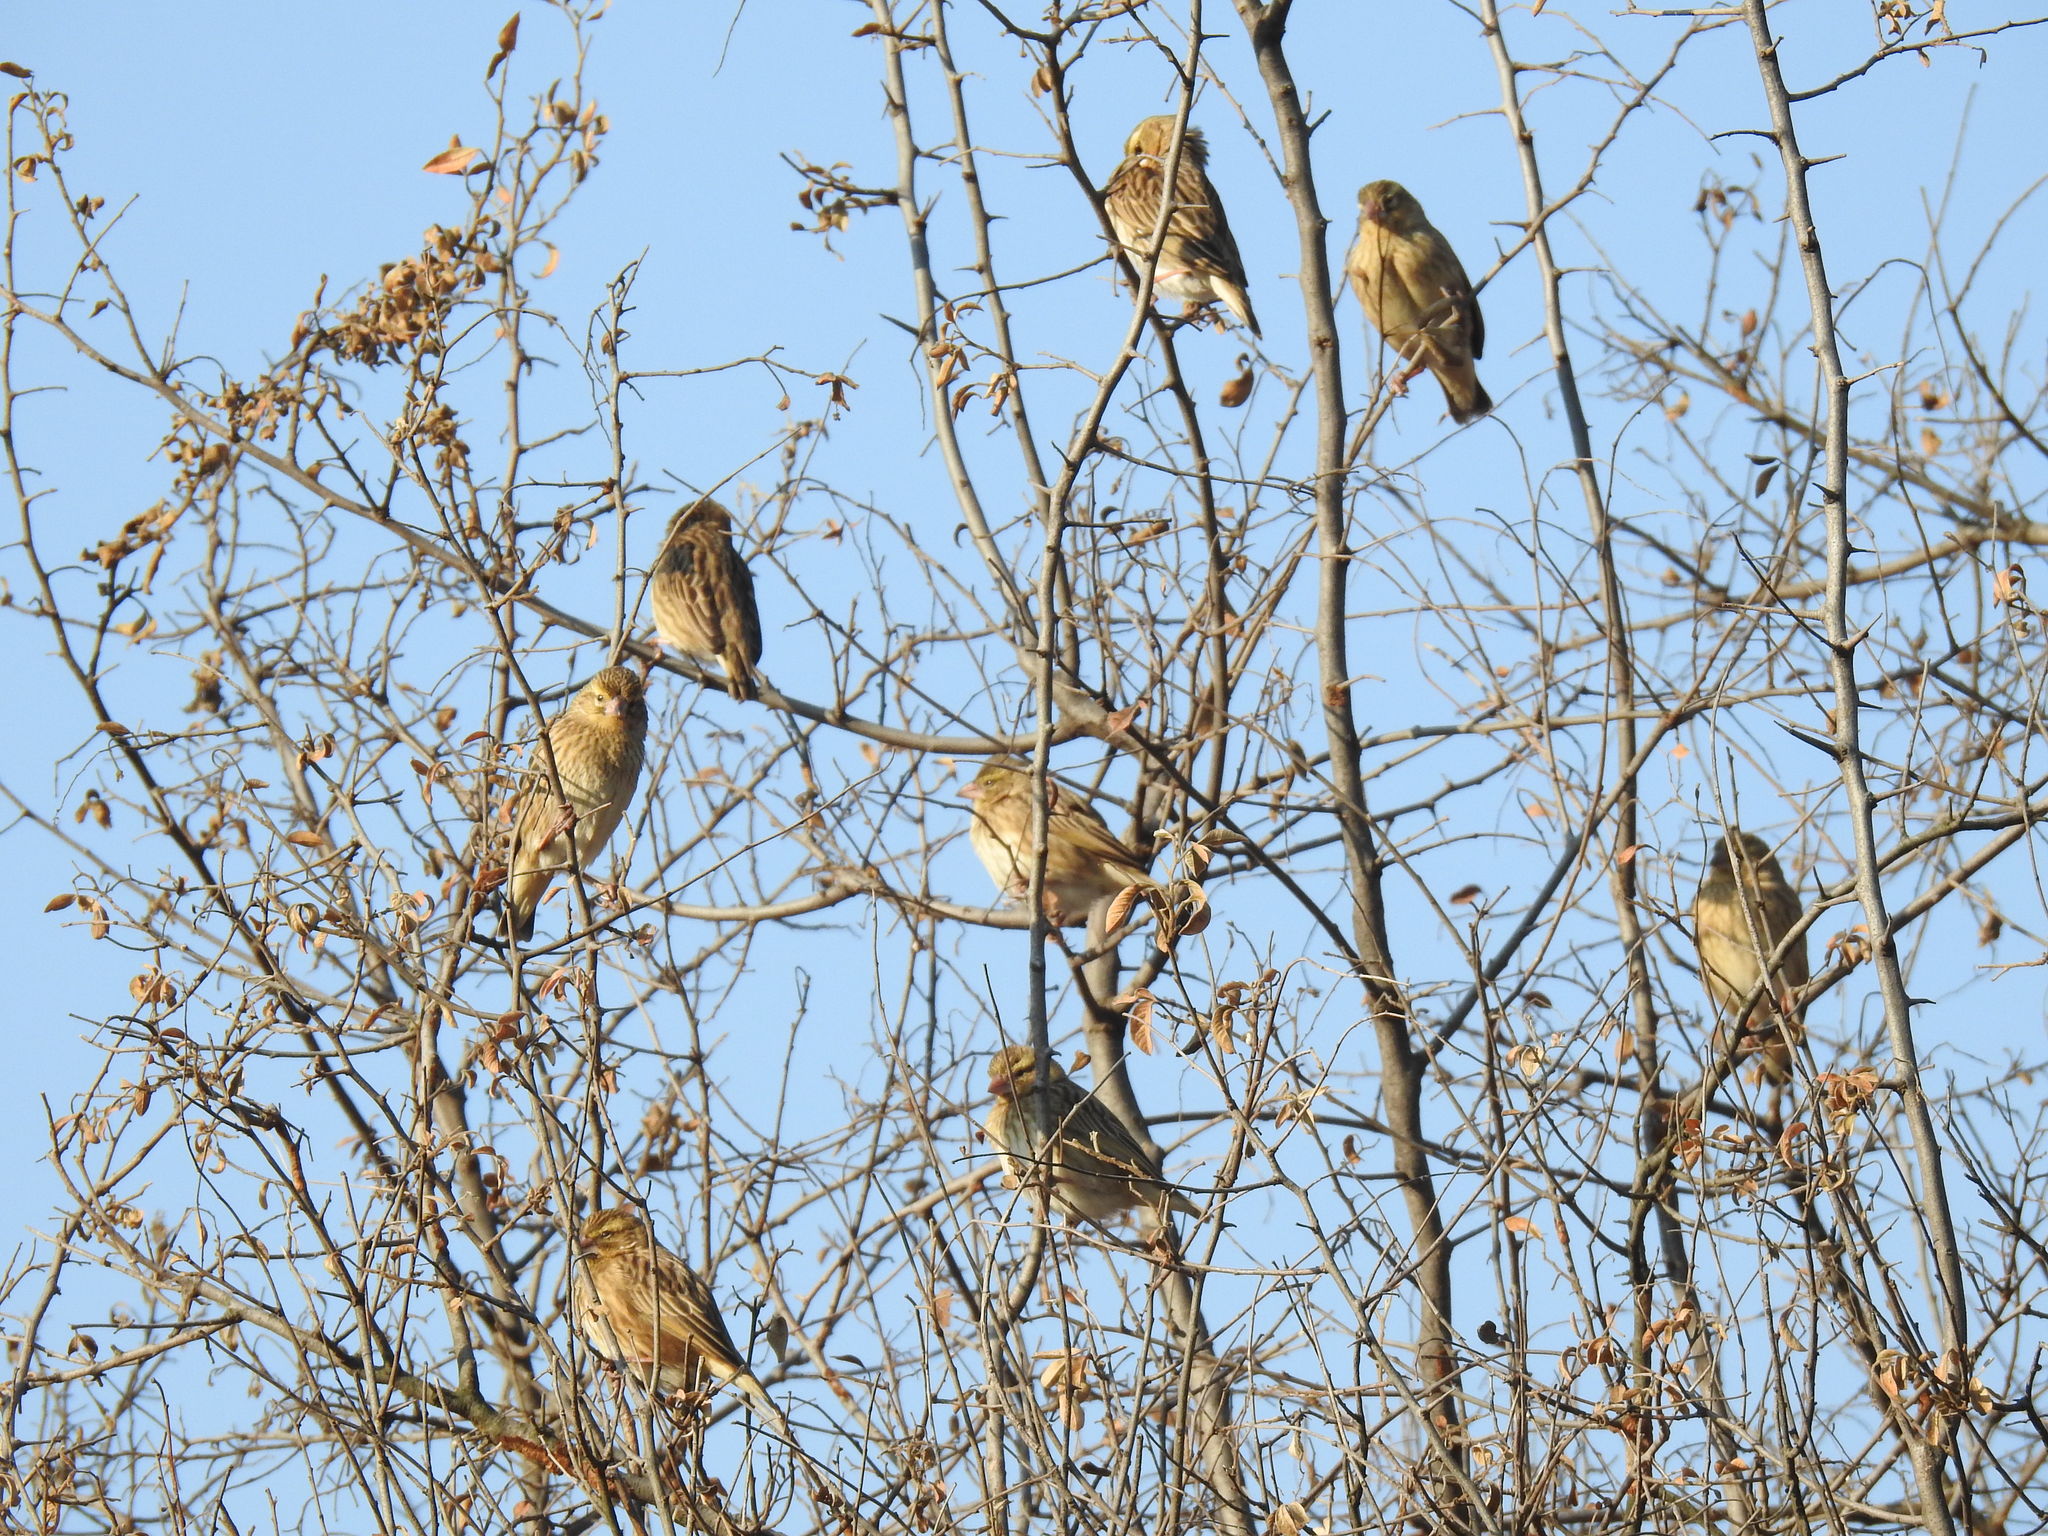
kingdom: Animalia
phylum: Chordata
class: Aves
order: Passeriformes
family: Ploceidae
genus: Euplectes
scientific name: Euplectes orix
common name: Southern red bishop
